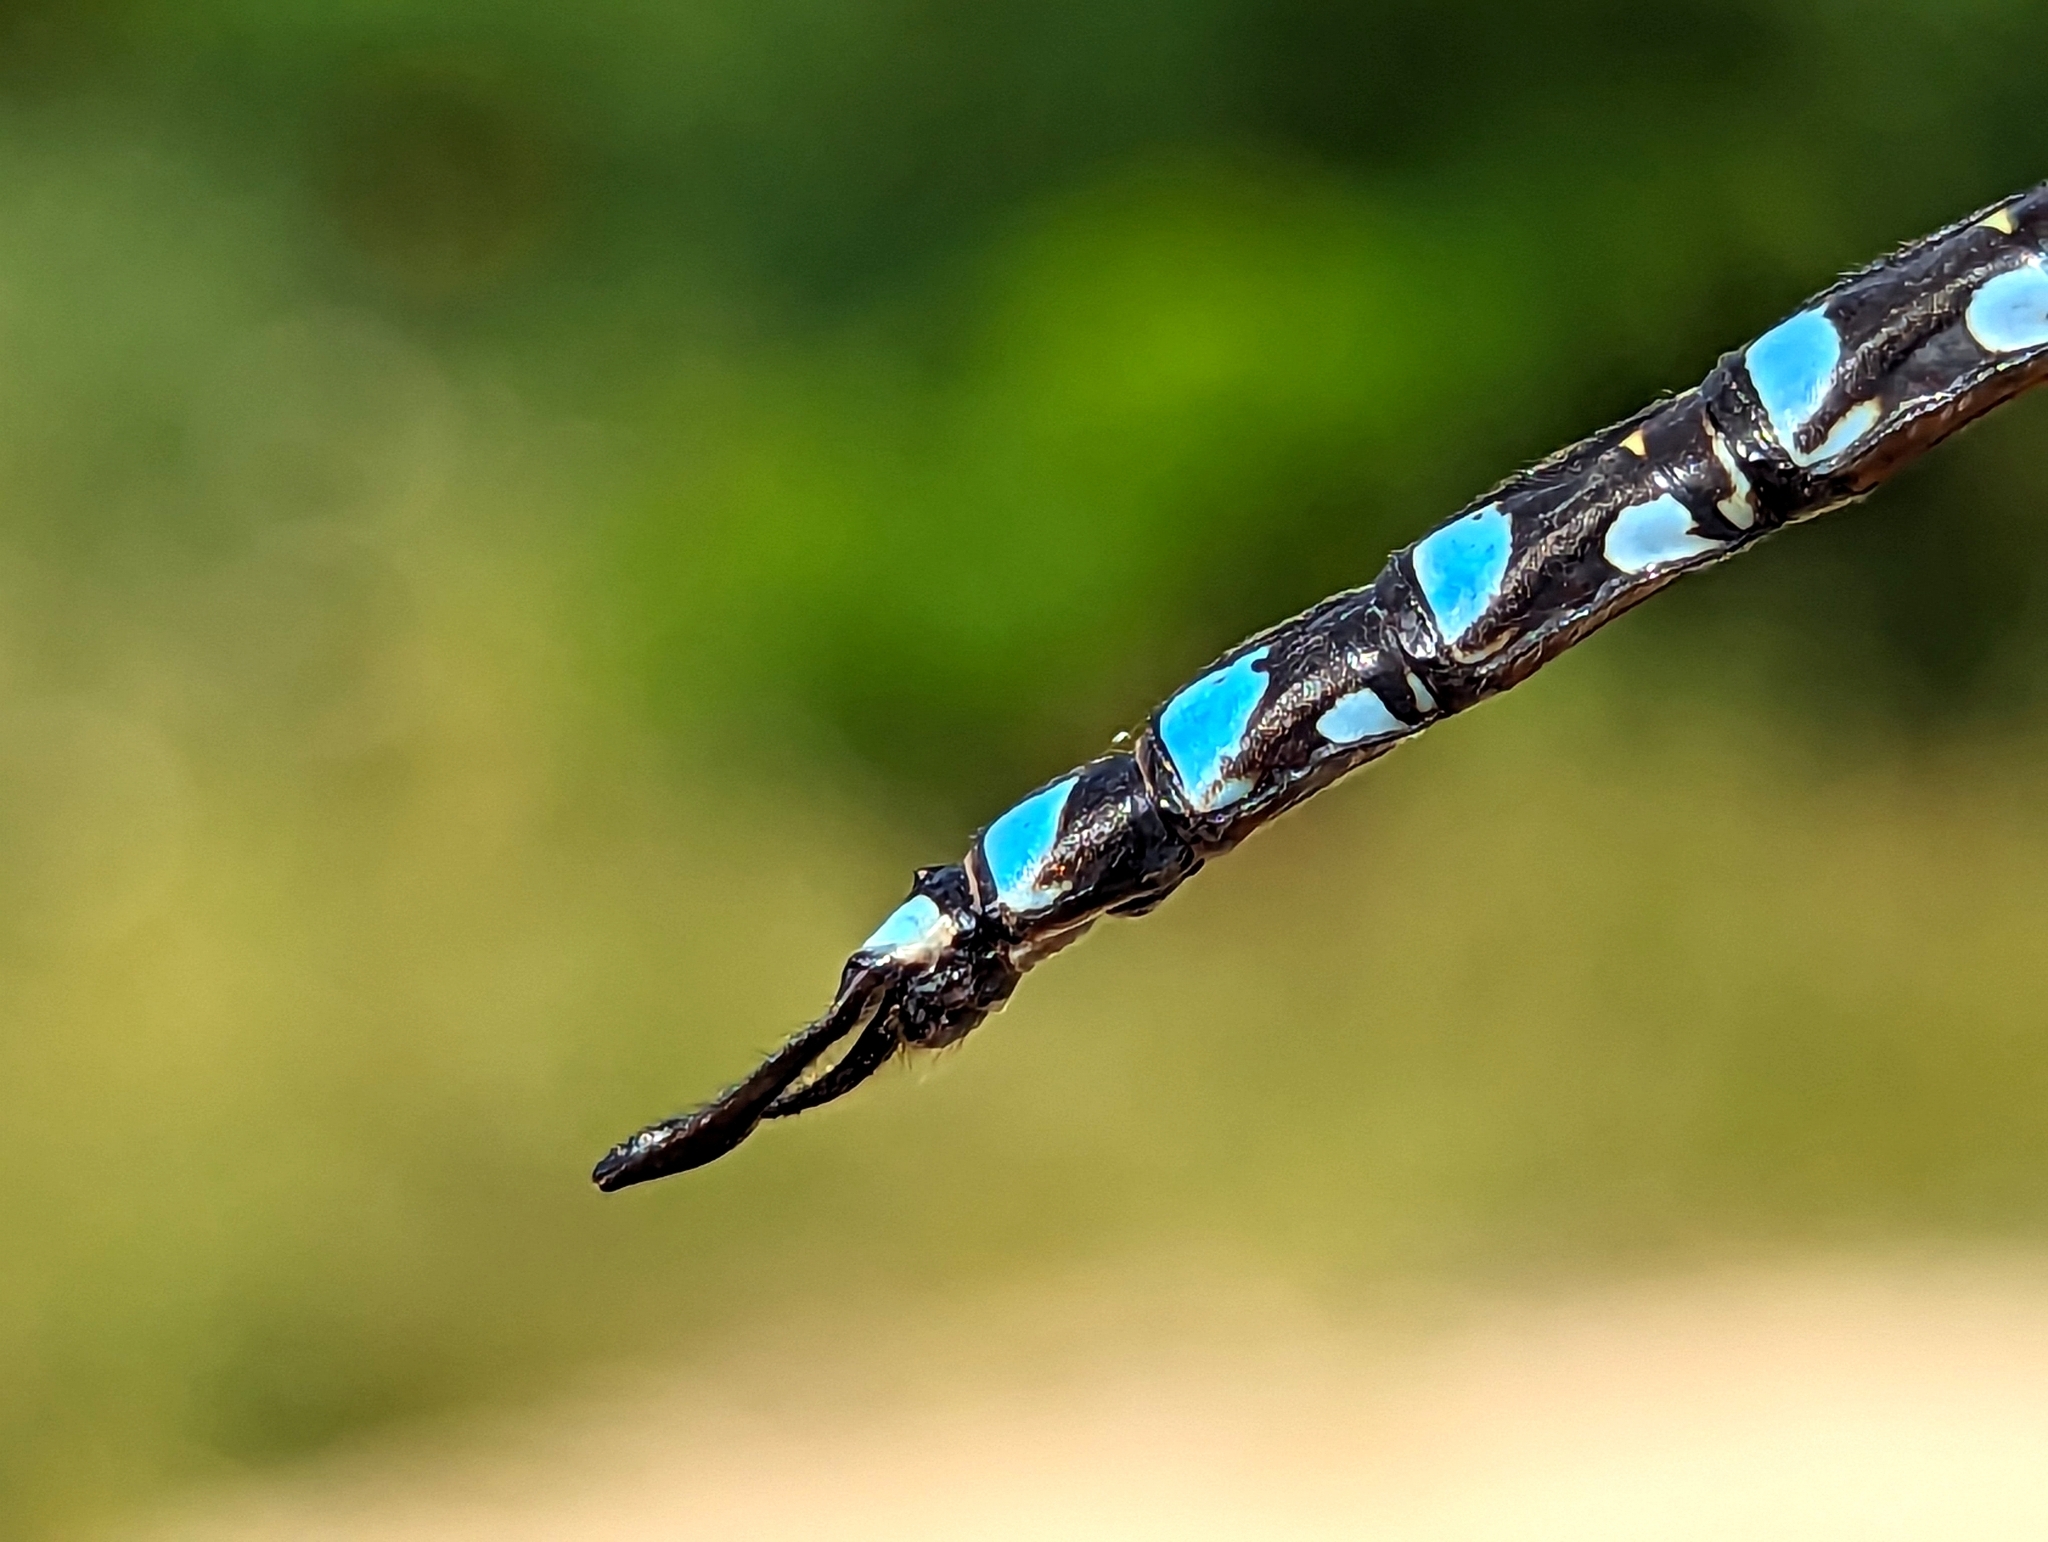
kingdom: Animalia
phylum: Arthropoda
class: Insecta
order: Odonata
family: Aeshnidae
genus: Aeshna
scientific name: Aeshna eremita
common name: Lake darner
